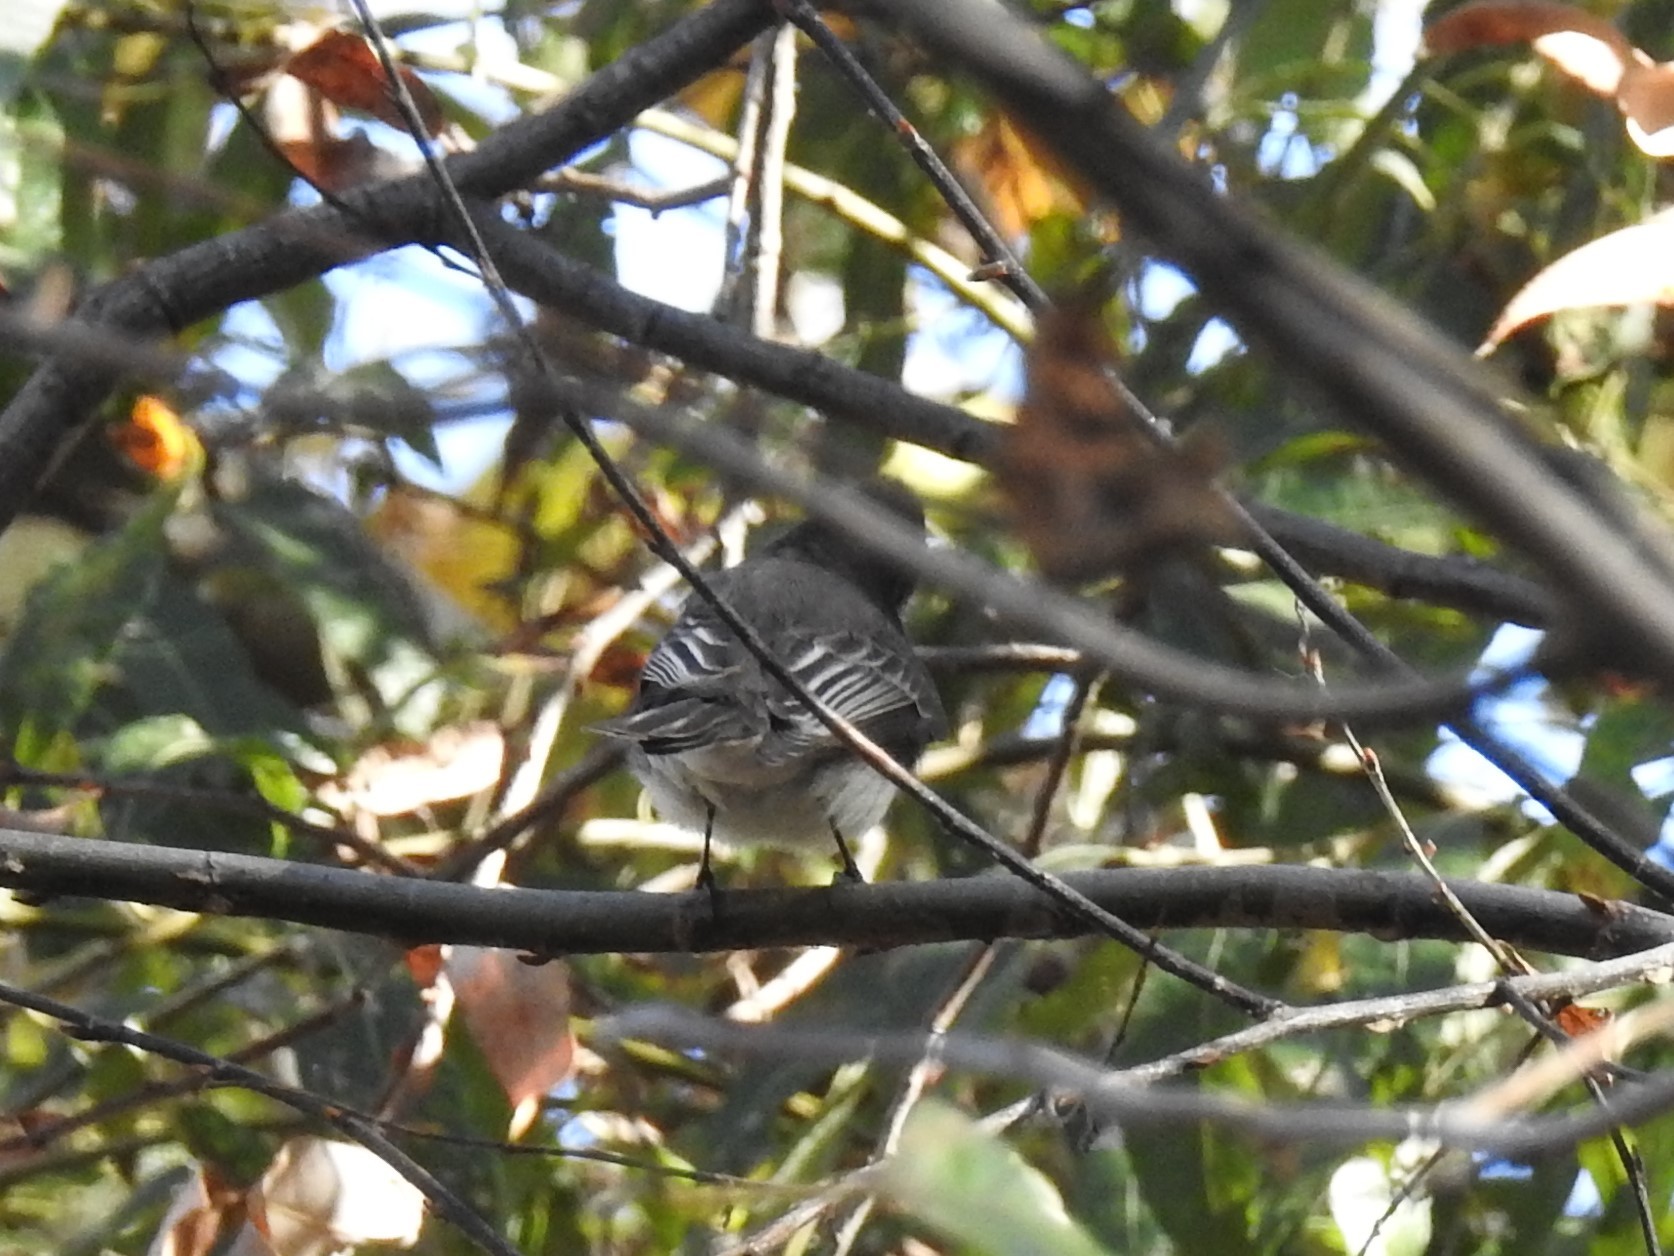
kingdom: Animalia
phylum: Chordata
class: Aves
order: Passeriformes
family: Tyrannidae
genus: Sayornis
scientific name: Sayornis nigricans
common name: Black phoebe
